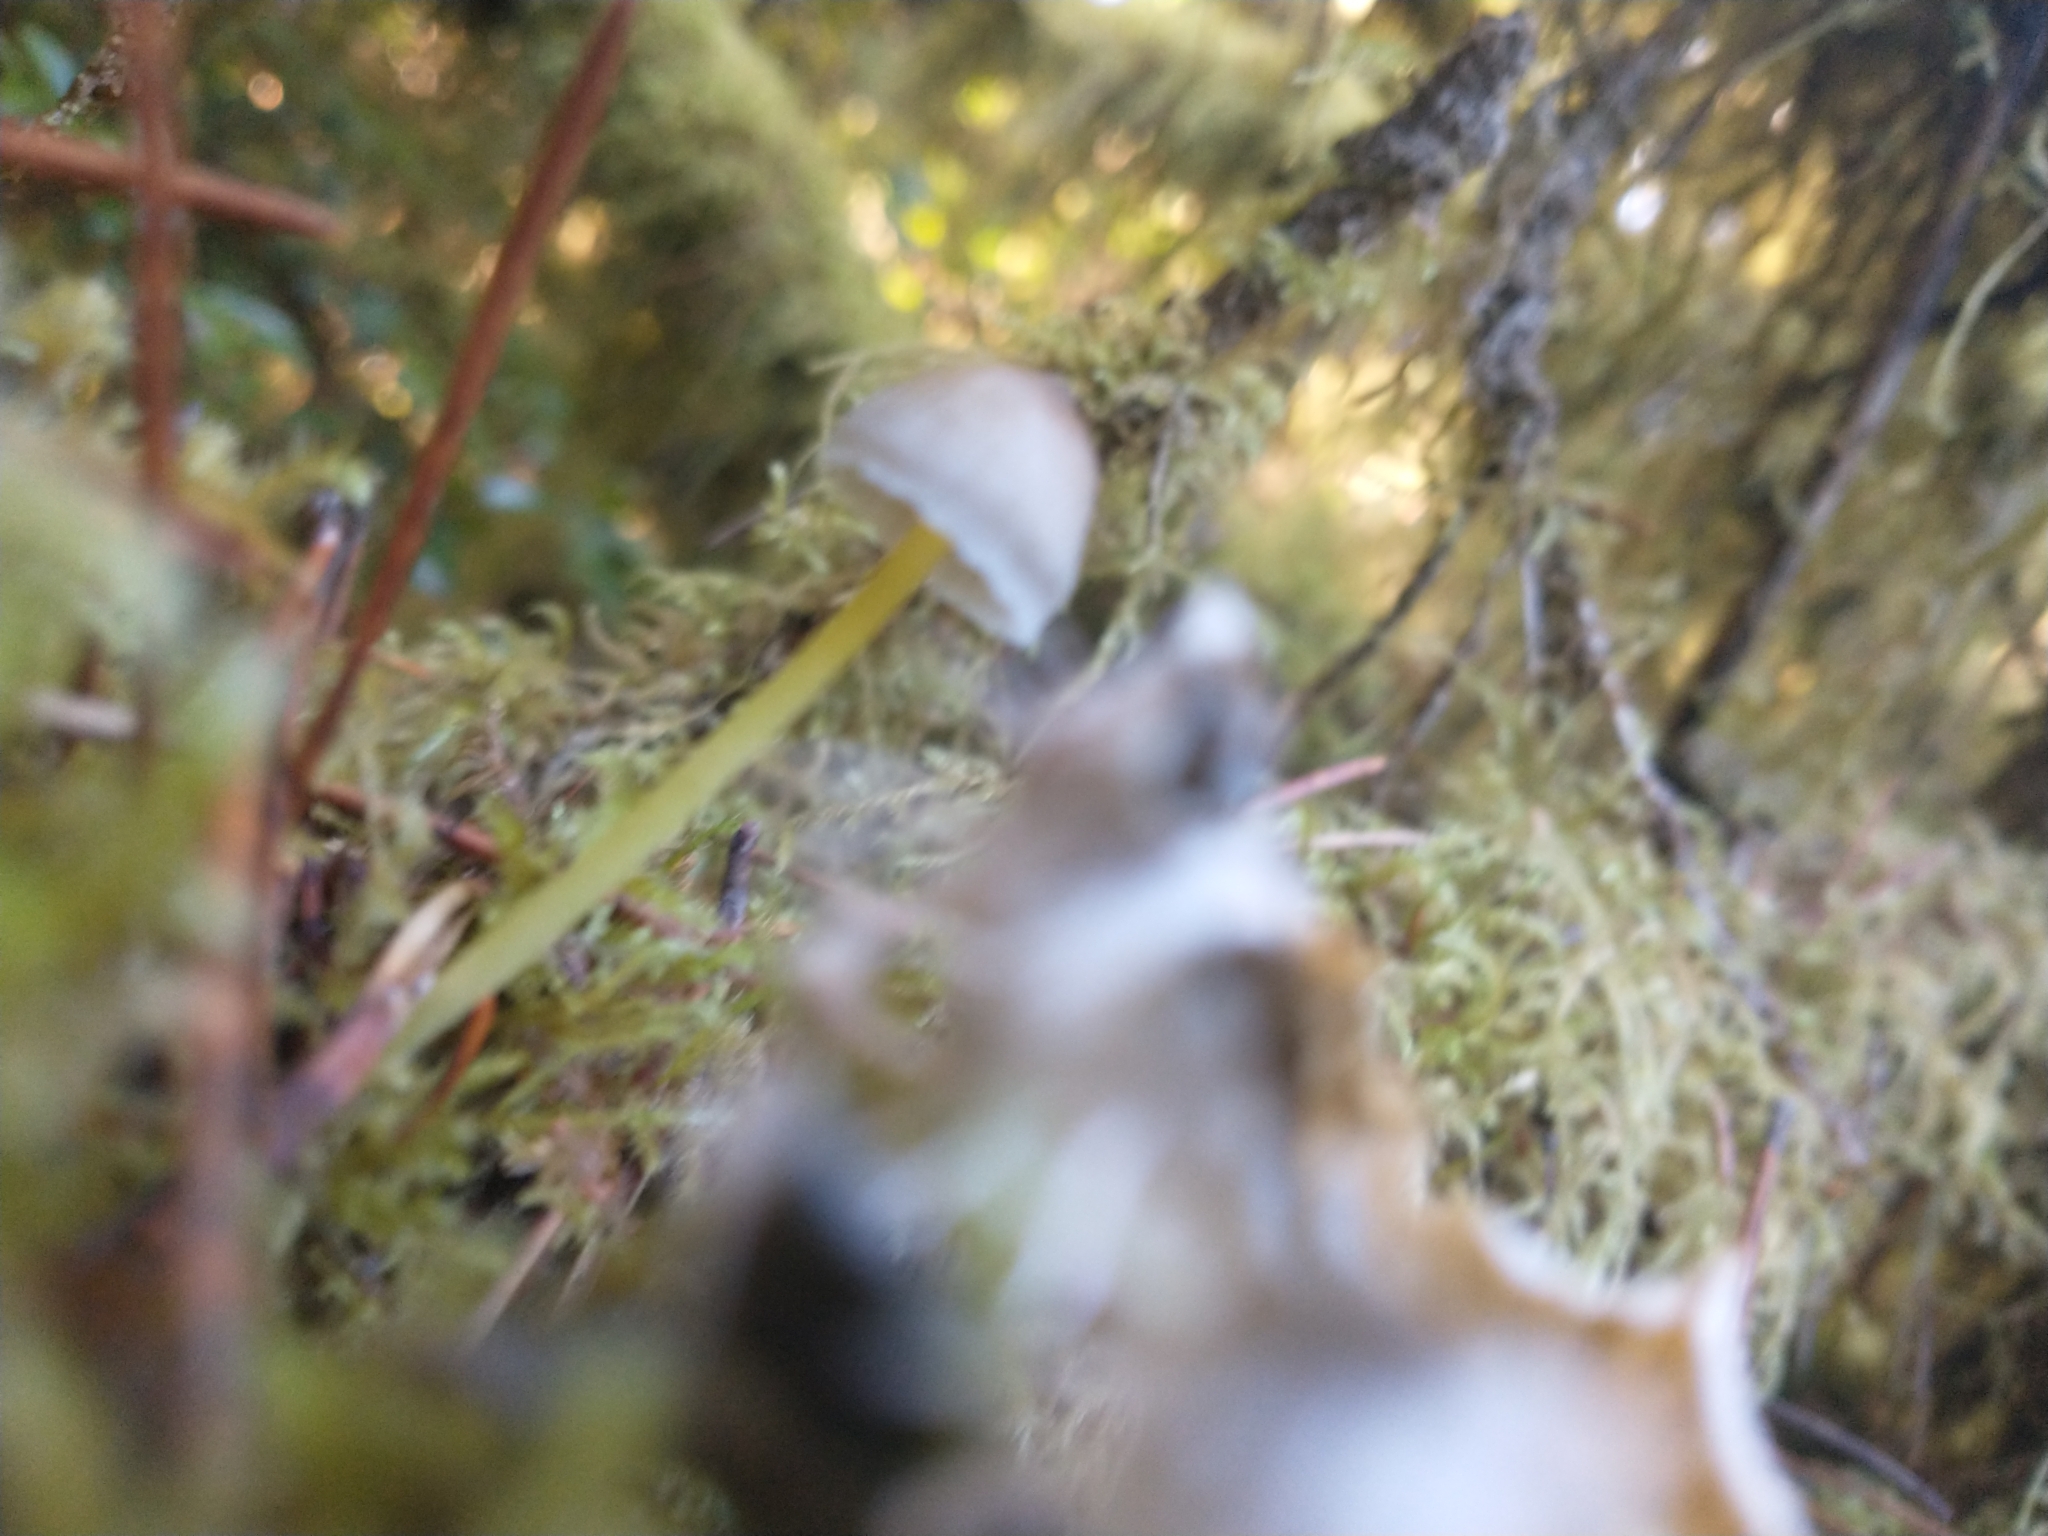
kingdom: Fungi
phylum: Basidiomycota
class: Agaricomycetes
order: Agaricales
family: Mycenaceae
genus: Mycena
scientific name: Mycena epipterygia
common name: Yellowleg bonnet
